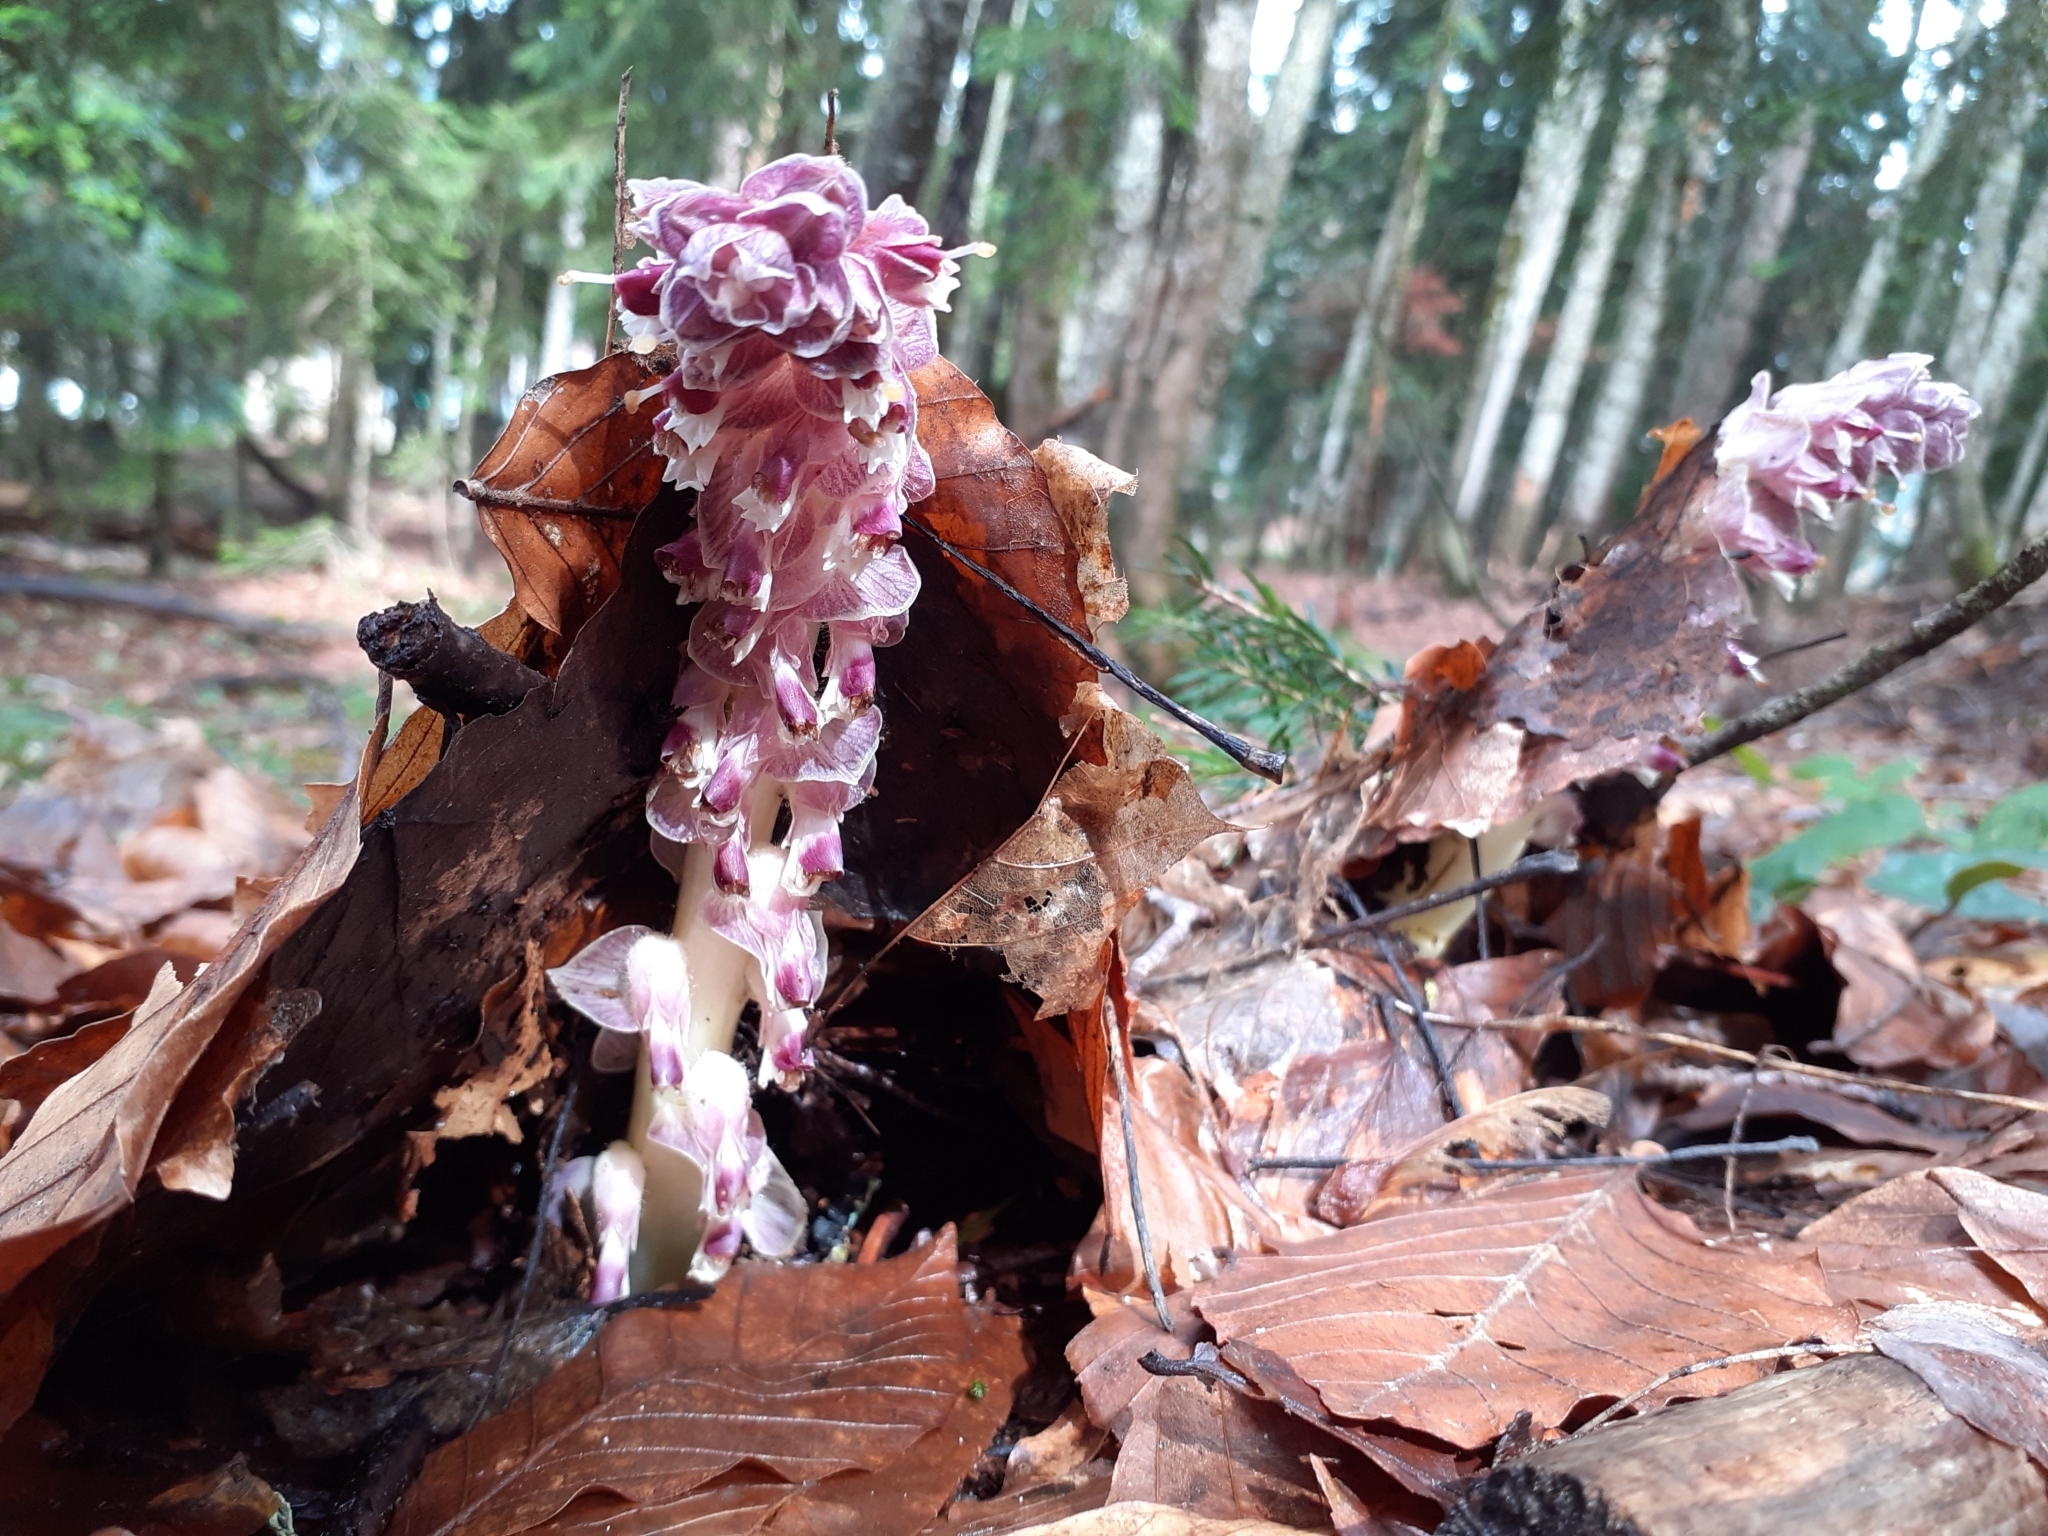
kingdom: Plantae
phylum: Tracheophyta
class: Magnoliopsida
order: Lamiales
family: Orobanchaceae
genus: Lathraea
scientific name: Lathraea squamaria
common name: Toothwort
